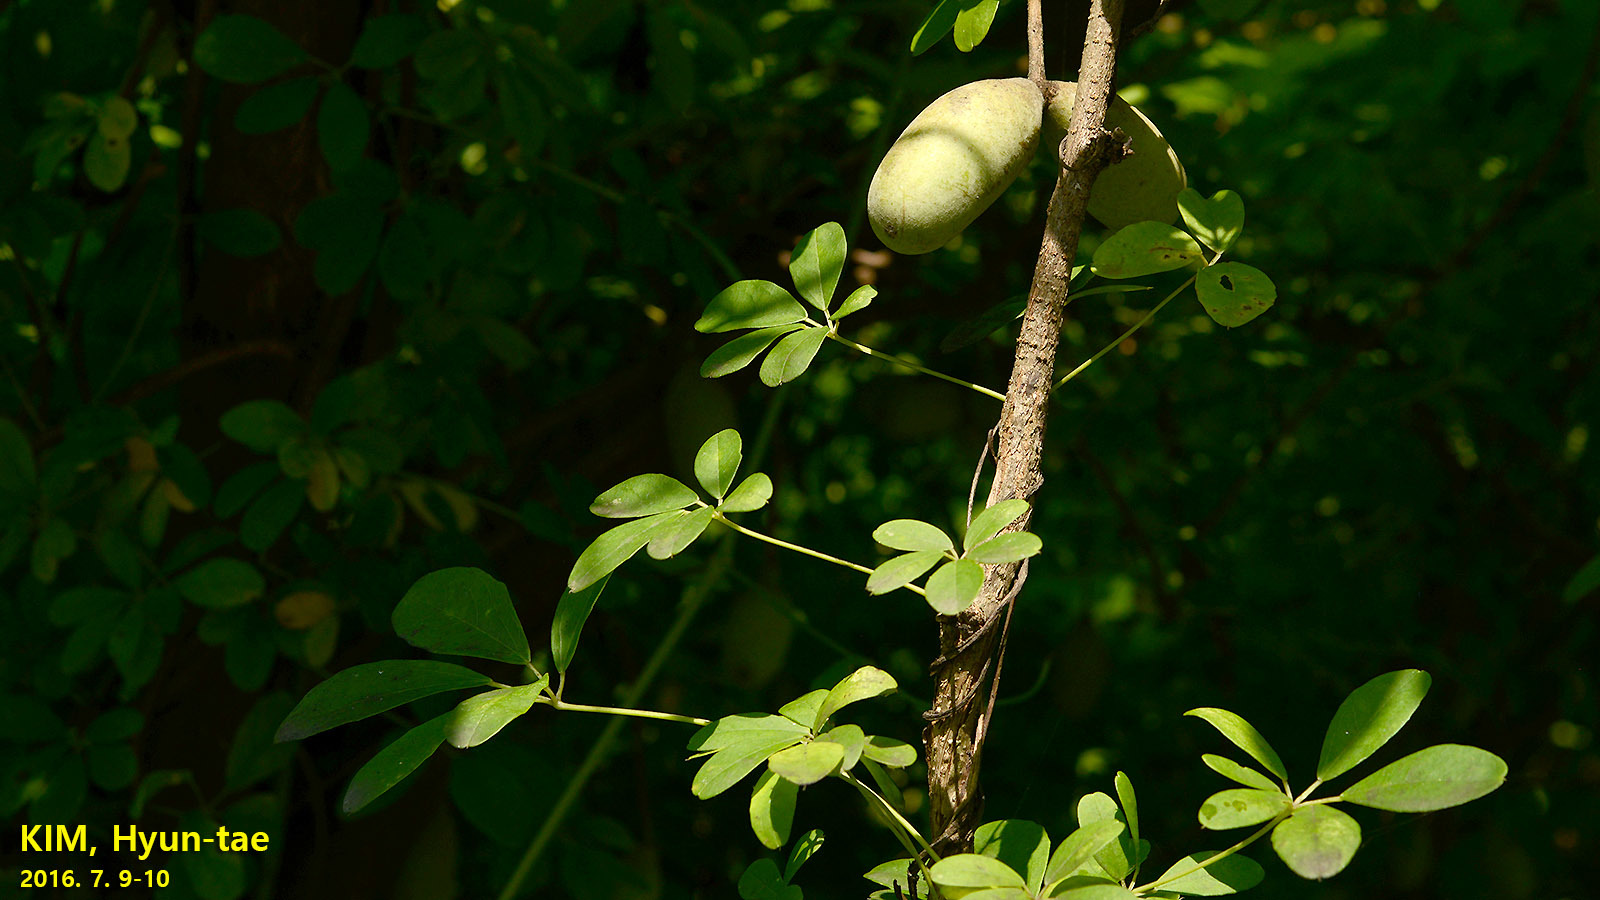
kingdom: Plantae
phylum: Tracheophyta
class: Magnoliopsida
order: Ranunculales
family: Lardizabalaceae
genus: Akebia
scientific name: Akebia quinata
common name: Five-leaf akebia
